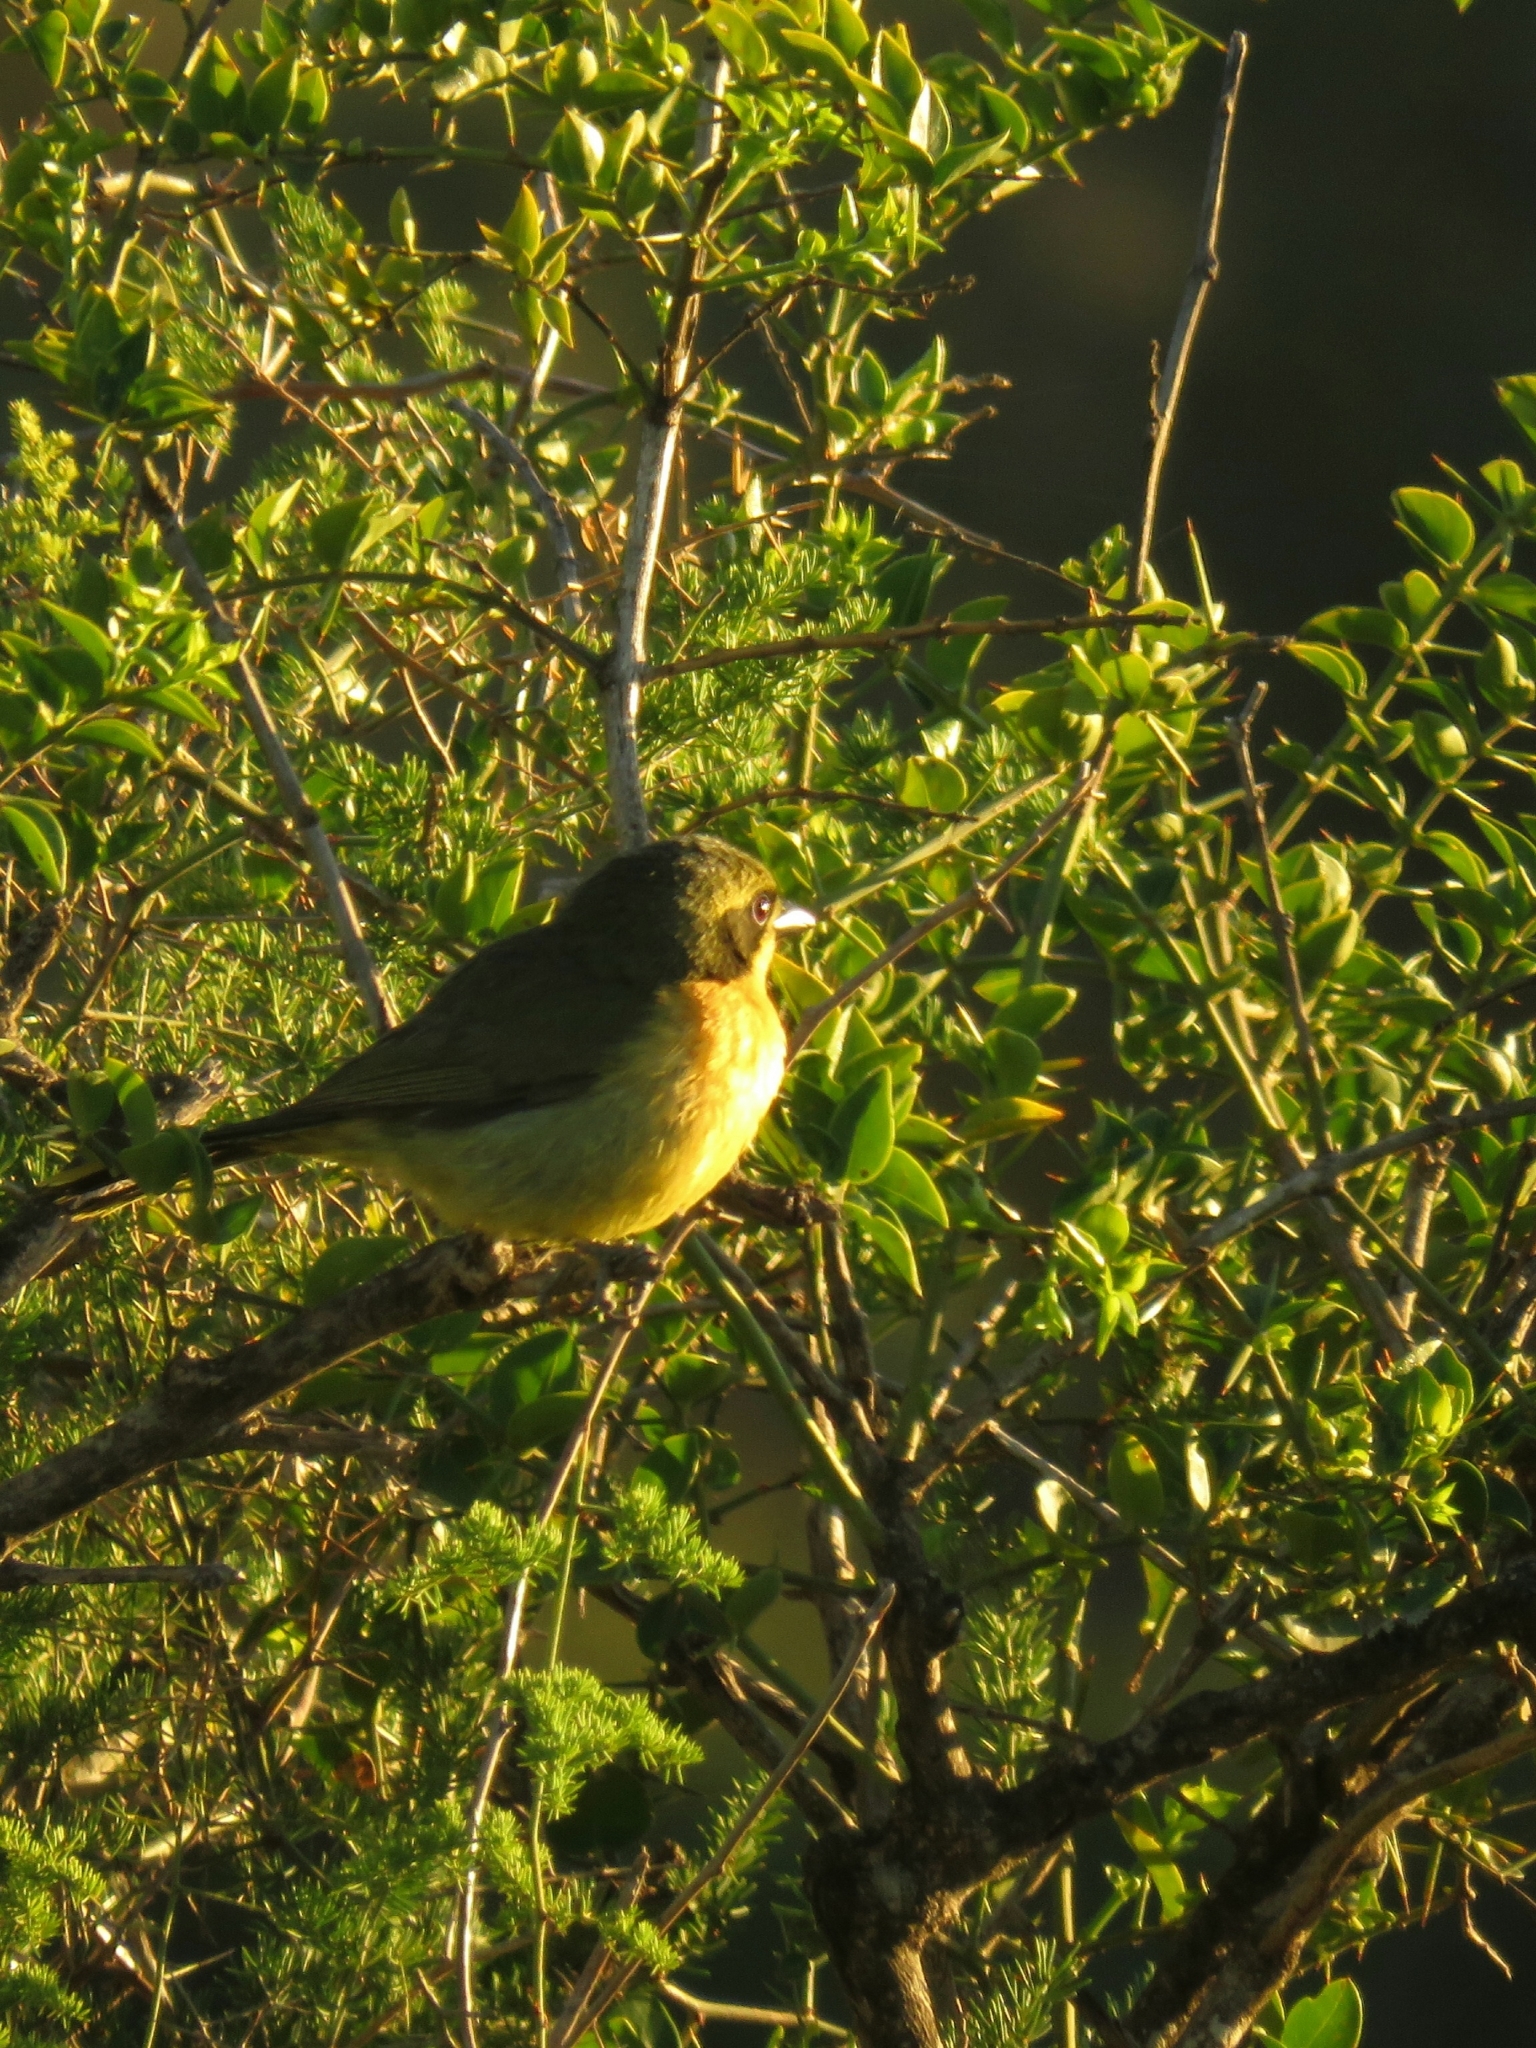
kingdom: Animalia
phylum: Chordata
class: Aves
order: Passeriformes
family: Malaconotidae
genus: Chlorophoneus
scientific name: Chlorophoneus olivaceus
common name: Olive bushshrike
